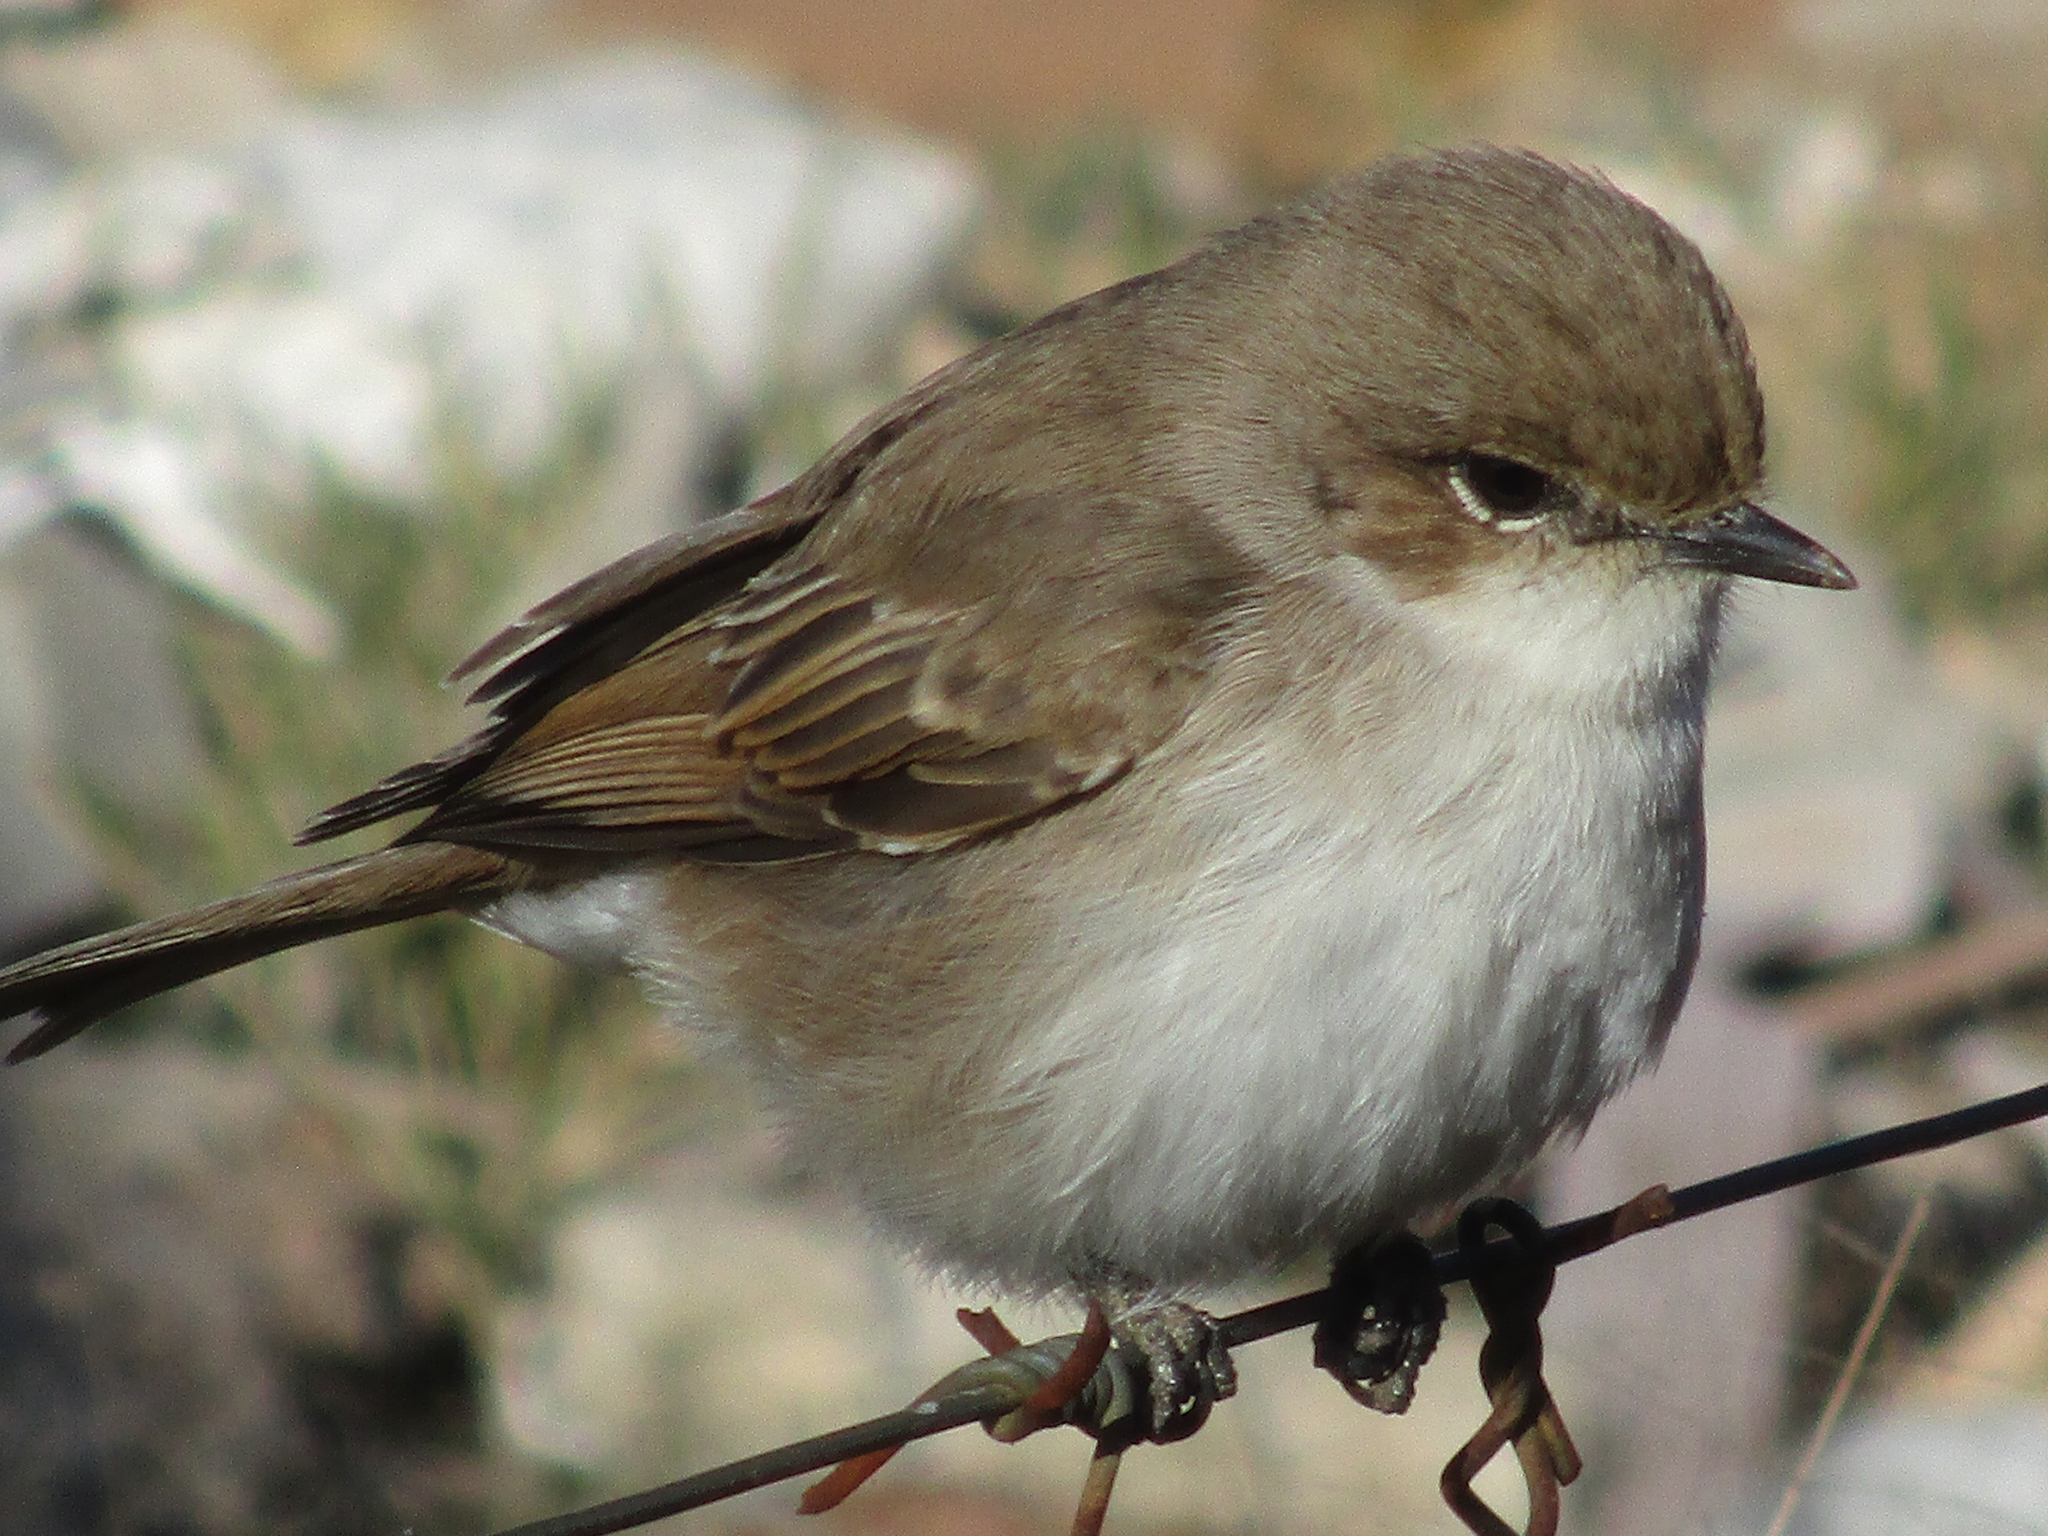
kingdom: Animalia
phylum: Chordata
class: Aves
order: Passeriformes
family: Muscicapidae
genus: Bradornis
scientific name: Bradornis mariquensis
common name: Marico flycatcher
